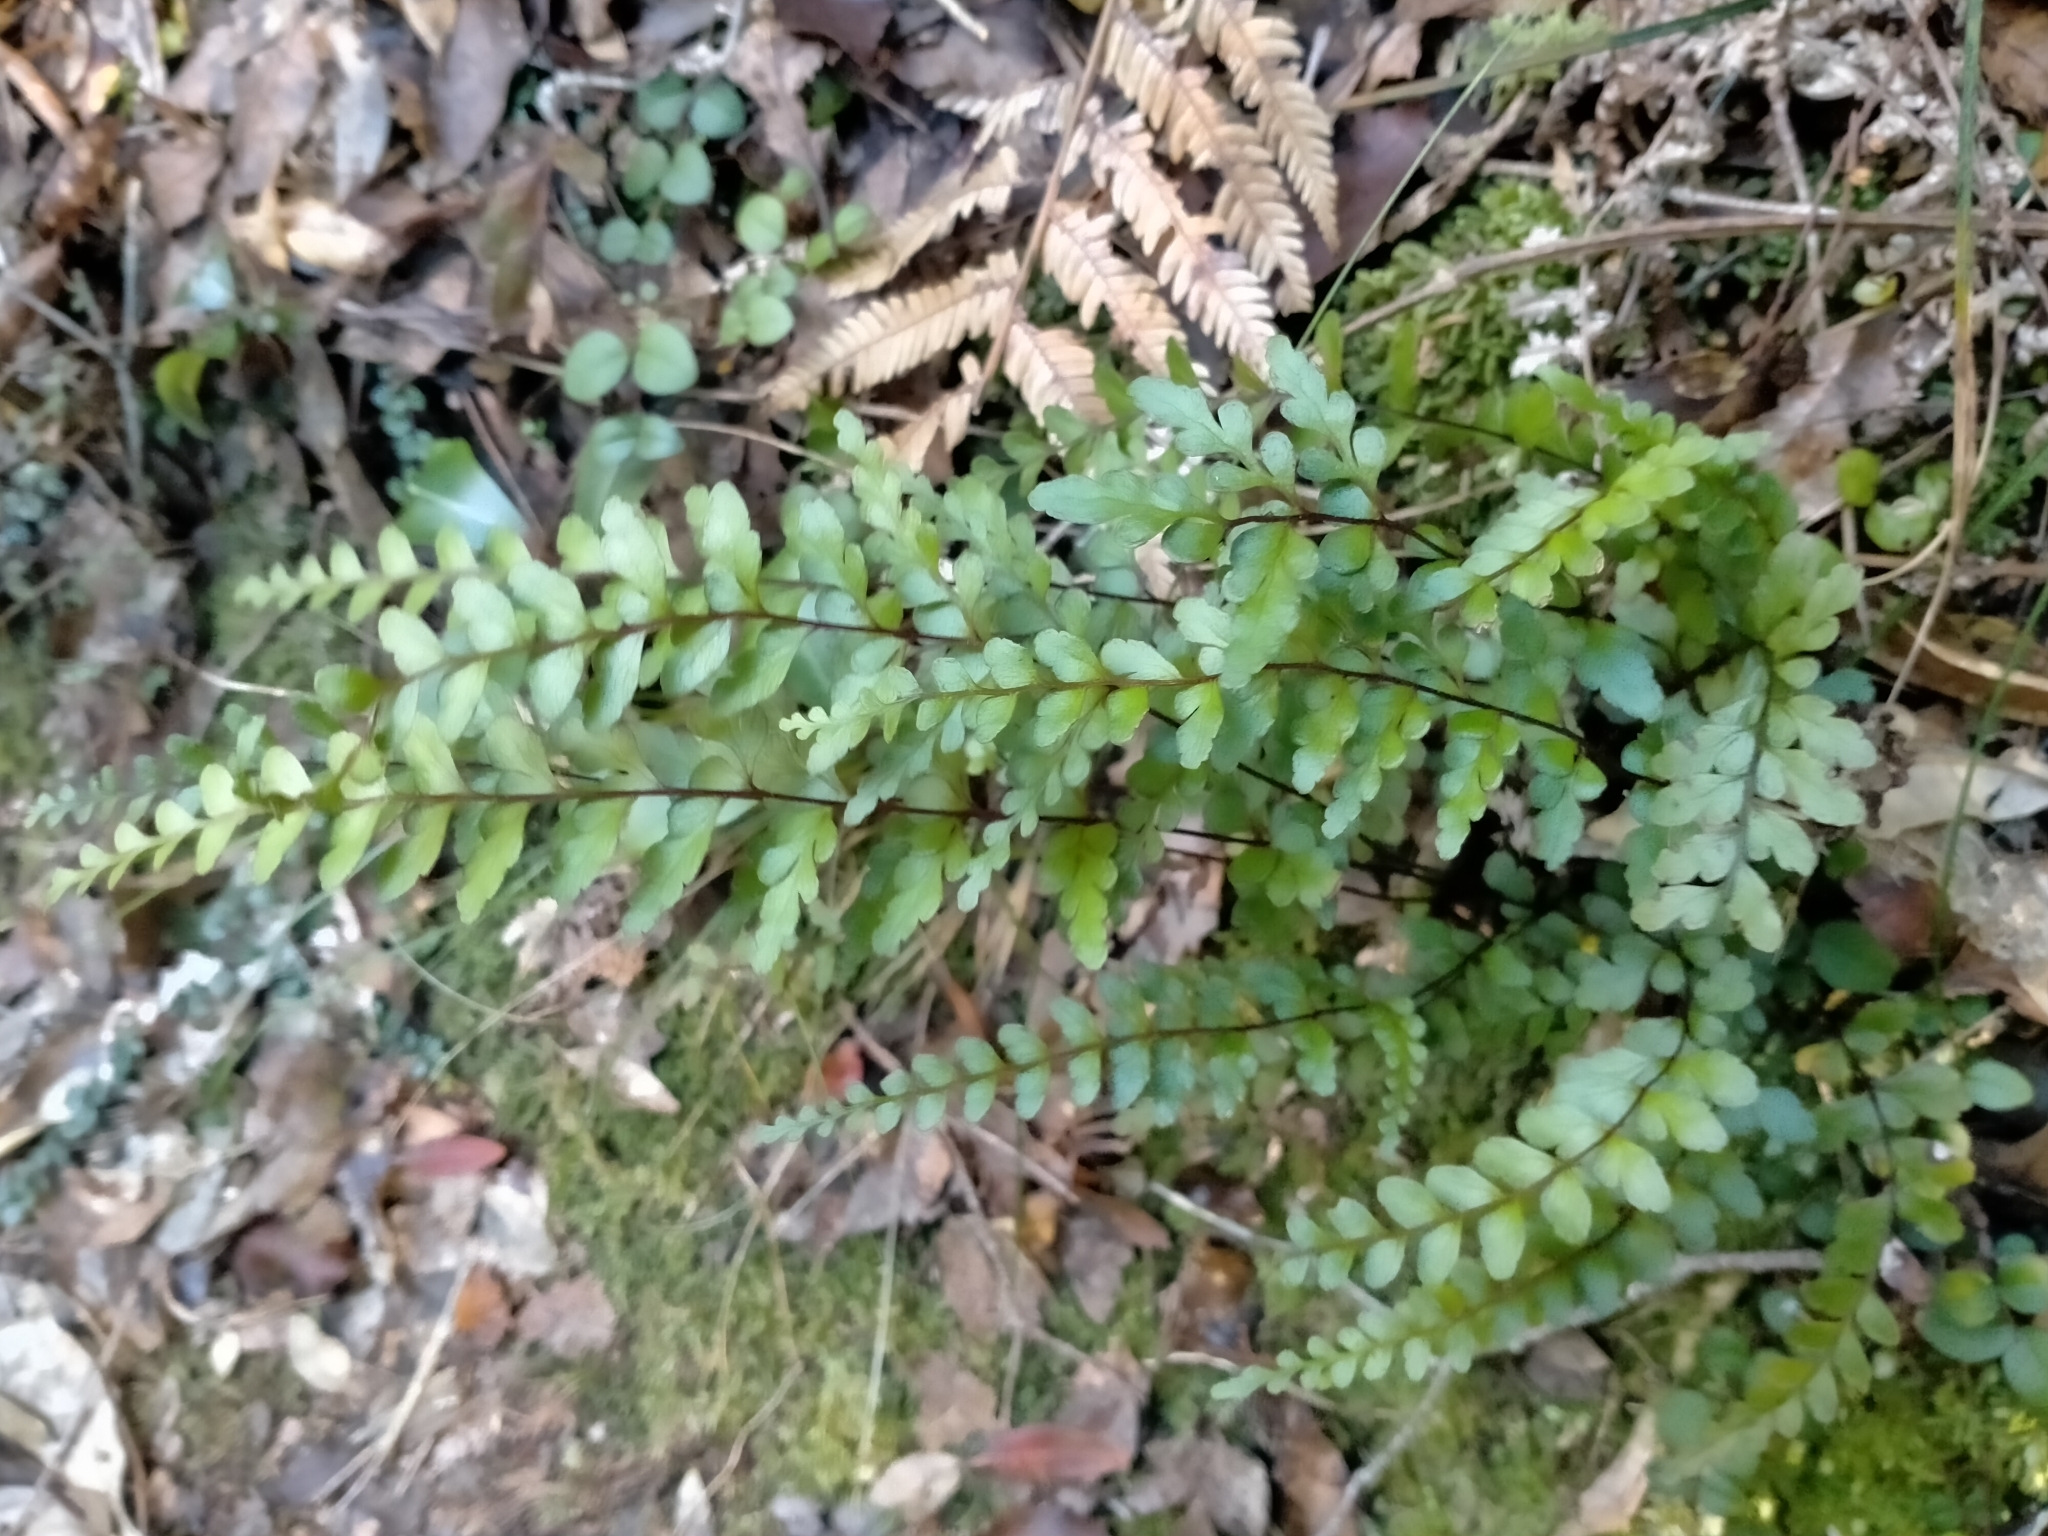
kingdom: Plantae
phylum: Tracheophyta
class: Polypodiopsida
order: Polypodiales
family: Lindsaeaceae
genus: Lindsaea
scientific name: Lindsaea trichomanoides
